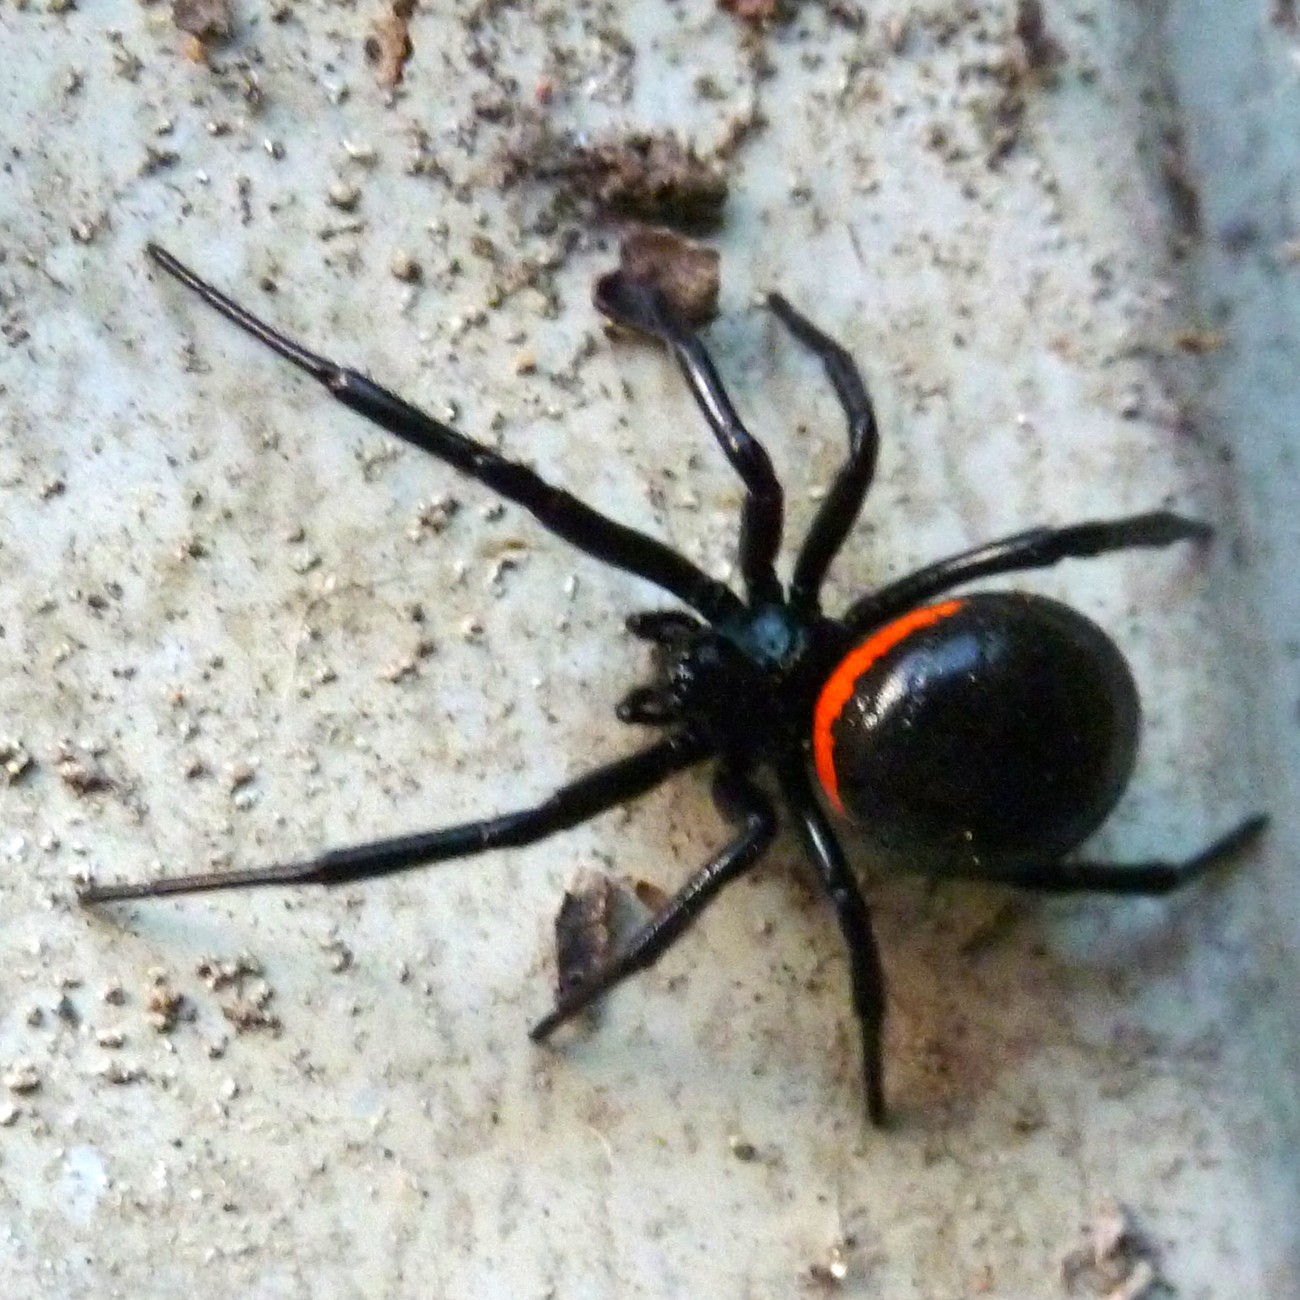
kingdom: Animalia
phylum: Arthropoda
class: Arachnida
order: Araneae
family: Theridiidae
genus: Steatoda
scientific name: Steatoda paykulliana
